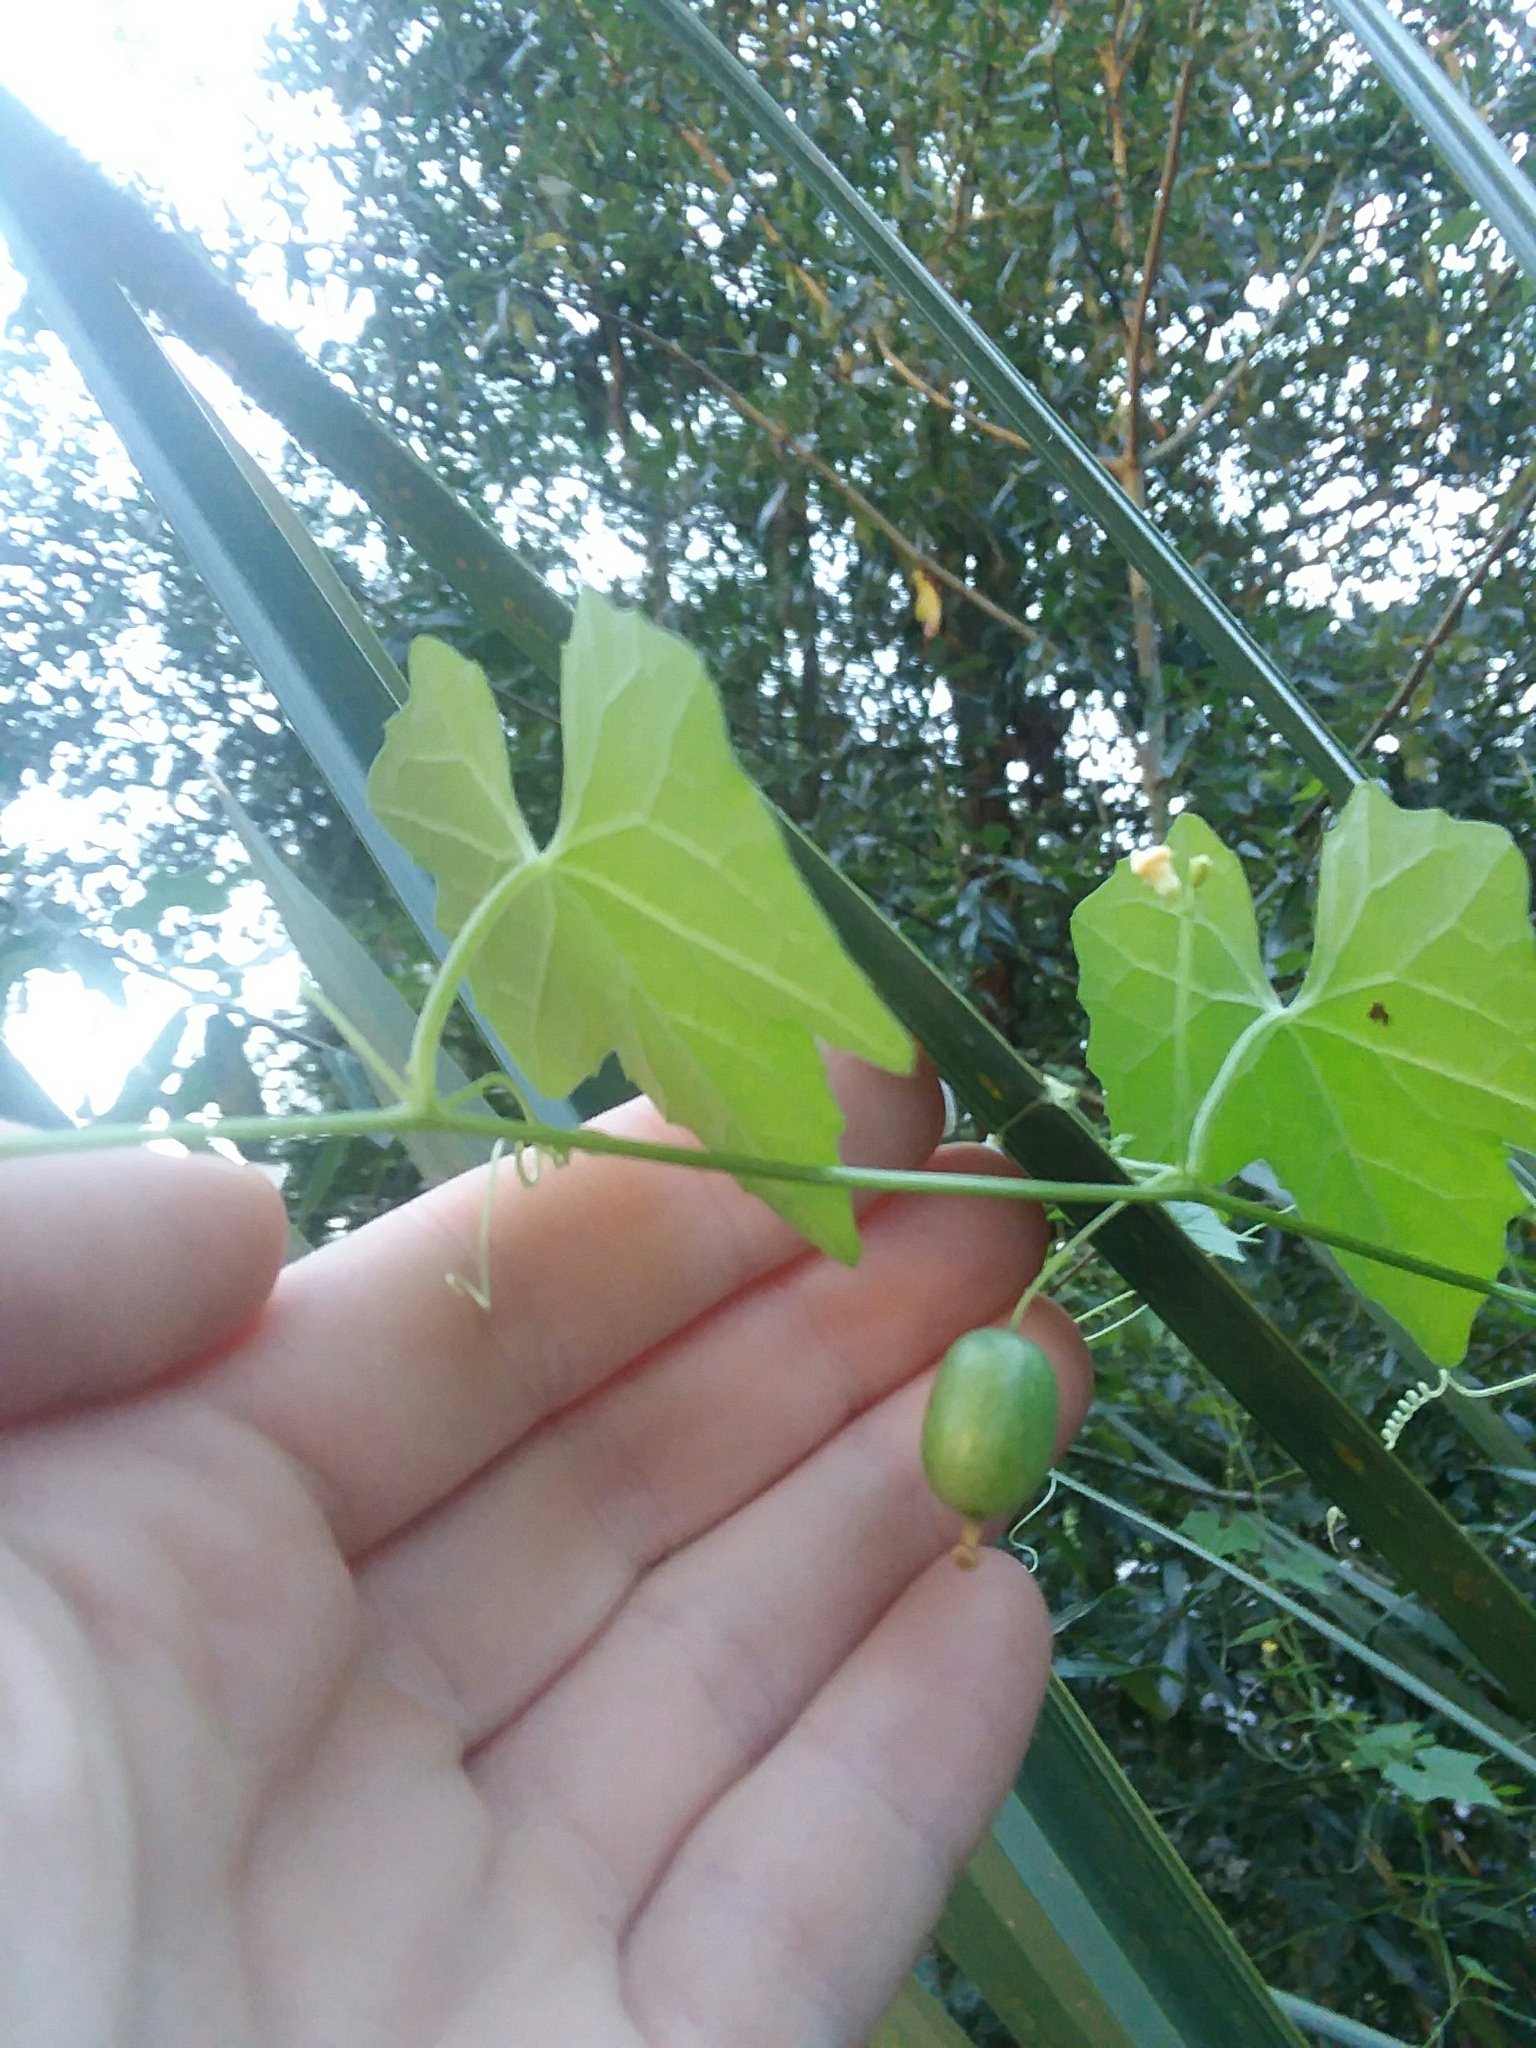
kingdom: Plantae
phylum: Tracheophyta
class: Magnoliopsida
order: Cucurbitales
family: Cucurbitaceae
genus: Melothria
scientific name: Melothria pendula
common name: Creeping-cucumber
